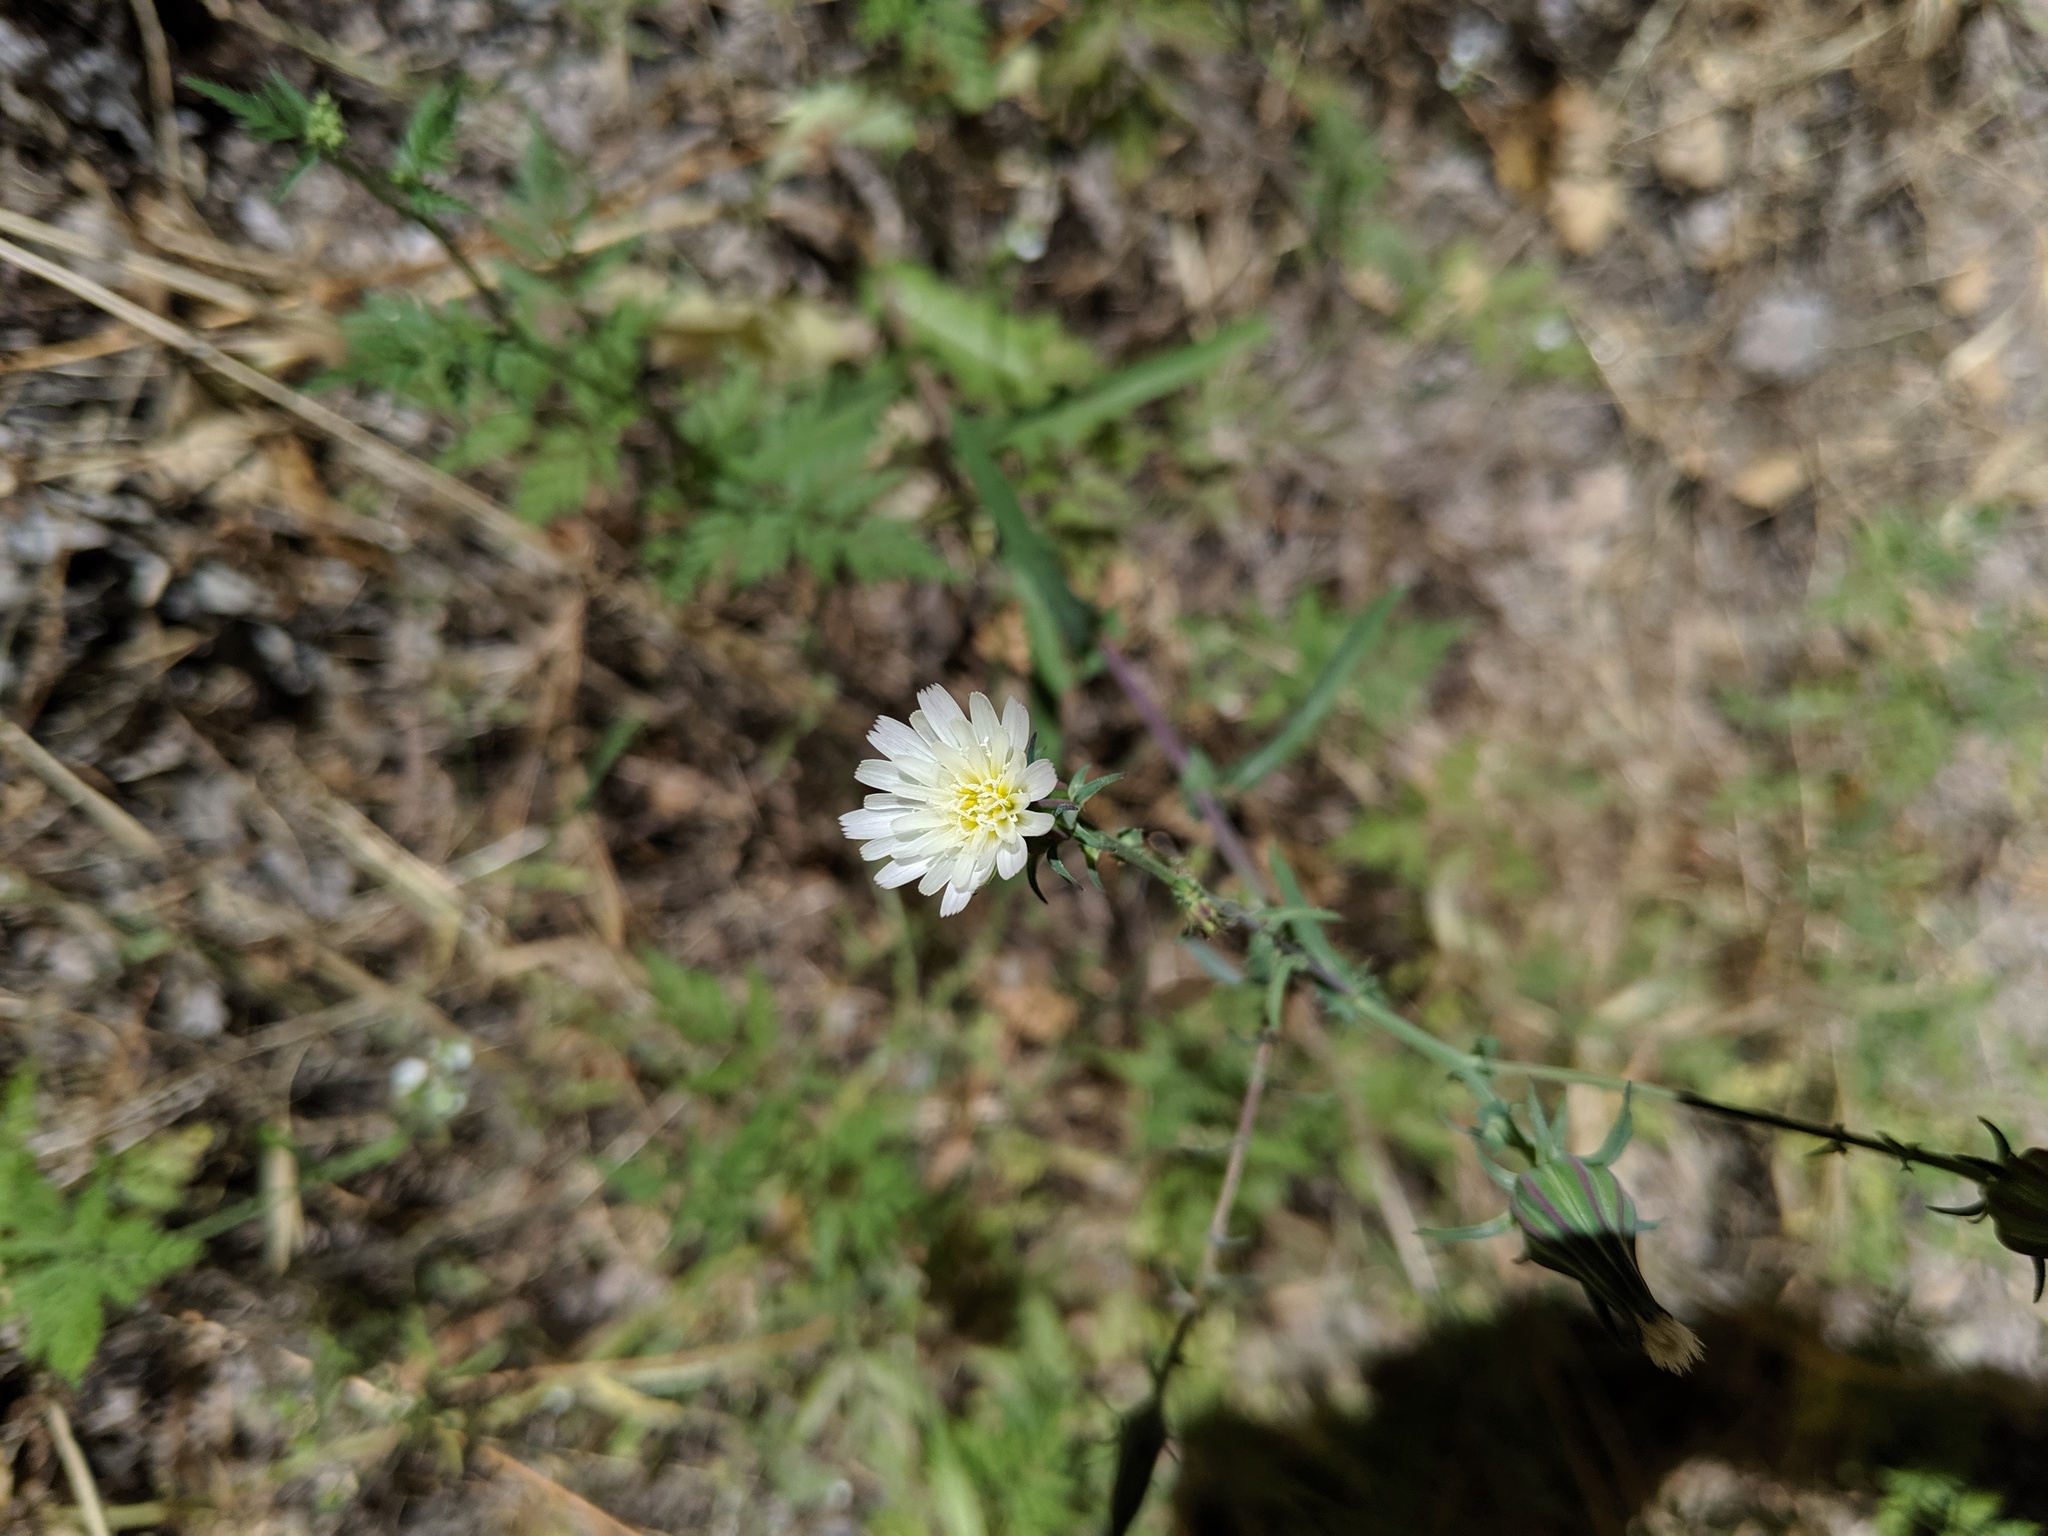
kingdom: Plantae
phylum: Tracheophyta
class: Magnoliopsida
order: Asterales
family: Asteraceae
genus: Rafinesquia
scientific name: Rafinesquia californica
